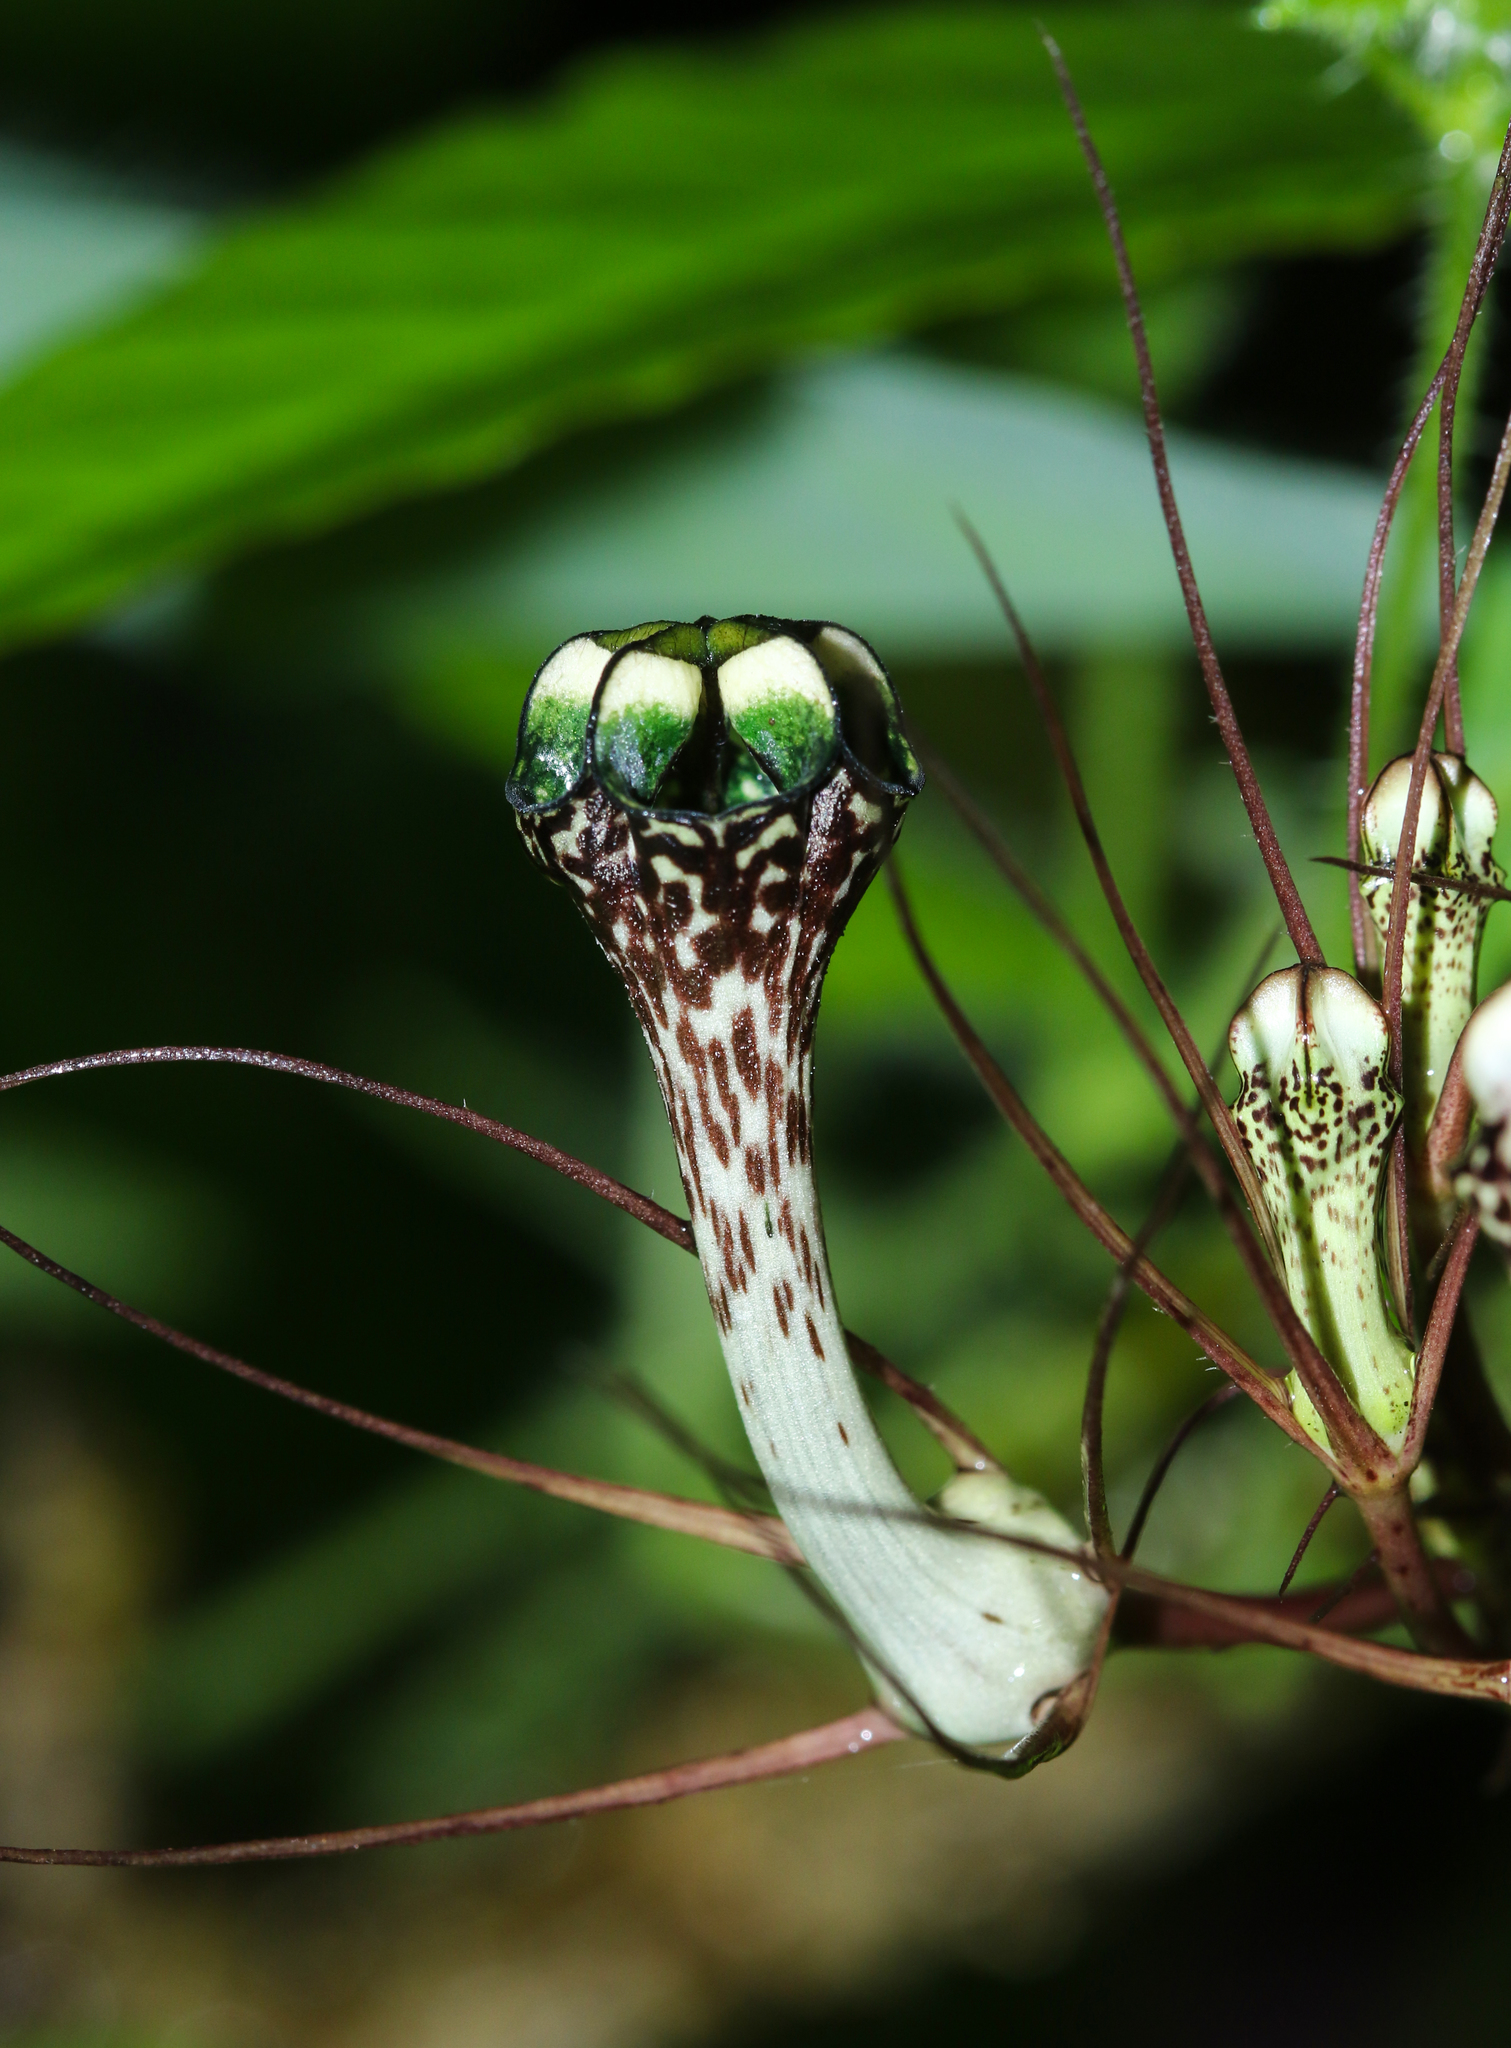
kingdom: Plantae
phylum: Tracheophyta
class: Magnoliopsida
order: Gentianales
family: Apocynaceae
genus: Ceropegia
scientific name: Ceropegia fantastica
